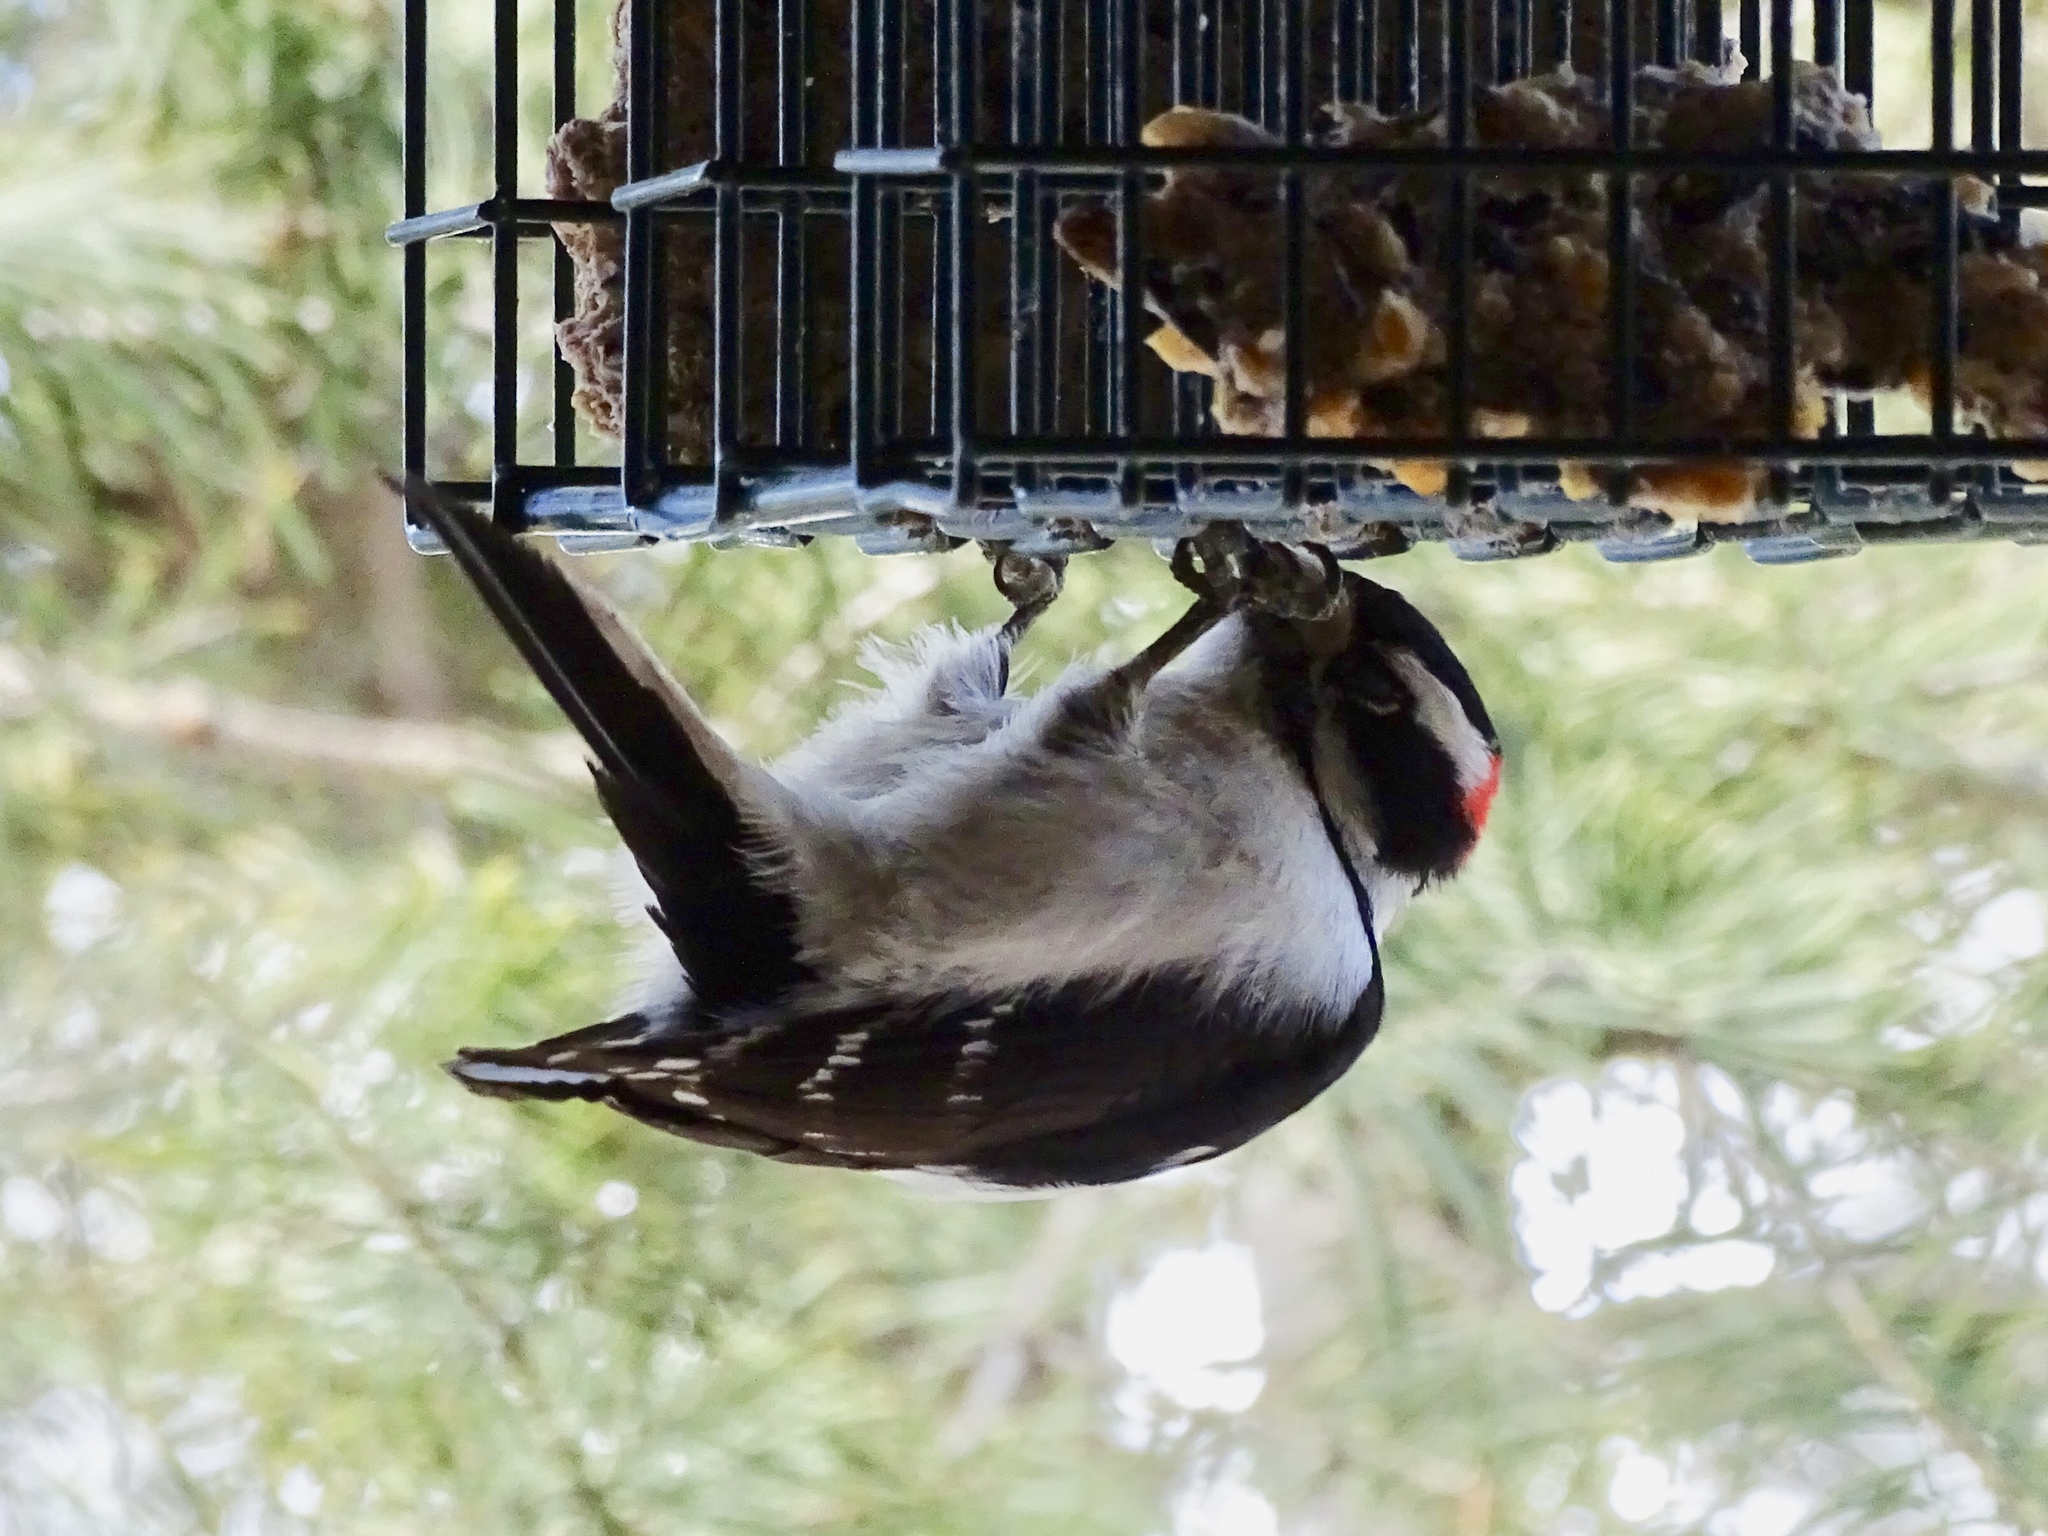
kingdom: Animalia
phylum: Chordata
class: Aves
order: Piciformes
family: Picidae
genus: Dryobates
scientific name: Dryobates pubescens
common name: Downy woodpecker
